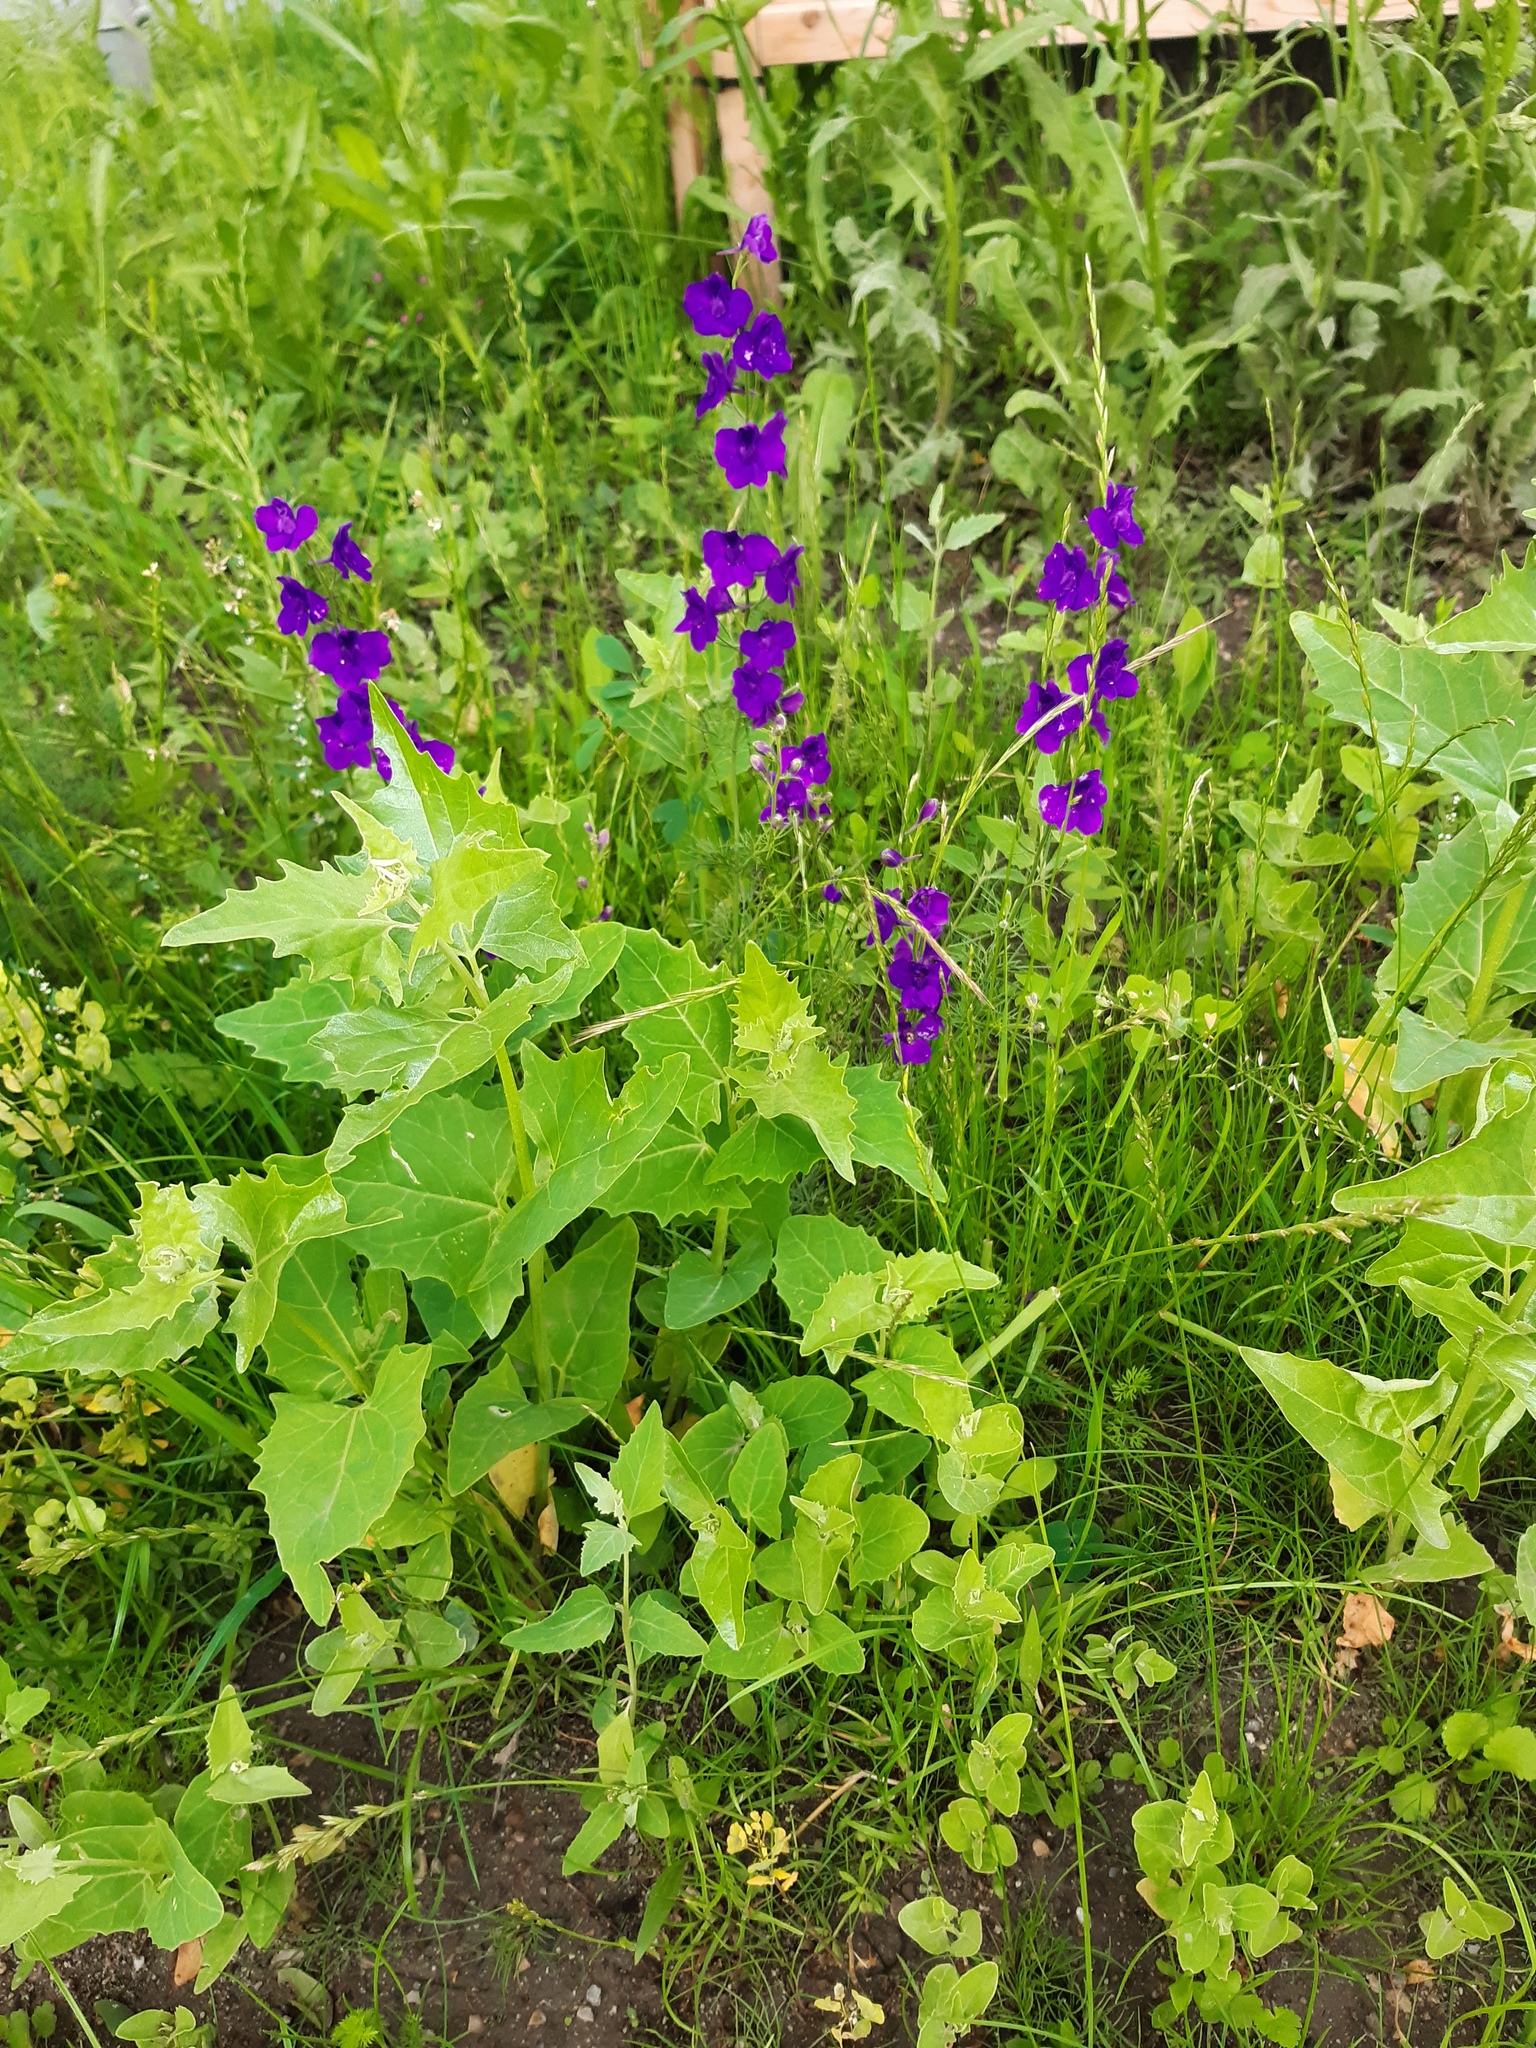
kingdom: Plantae
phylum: Tracheophyta
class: Magnoliopsida
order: Ranunculales
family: Ranunculaceae
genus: Delphinium
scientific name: Delphinium hispanicum
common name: Oriental knight's-spur
